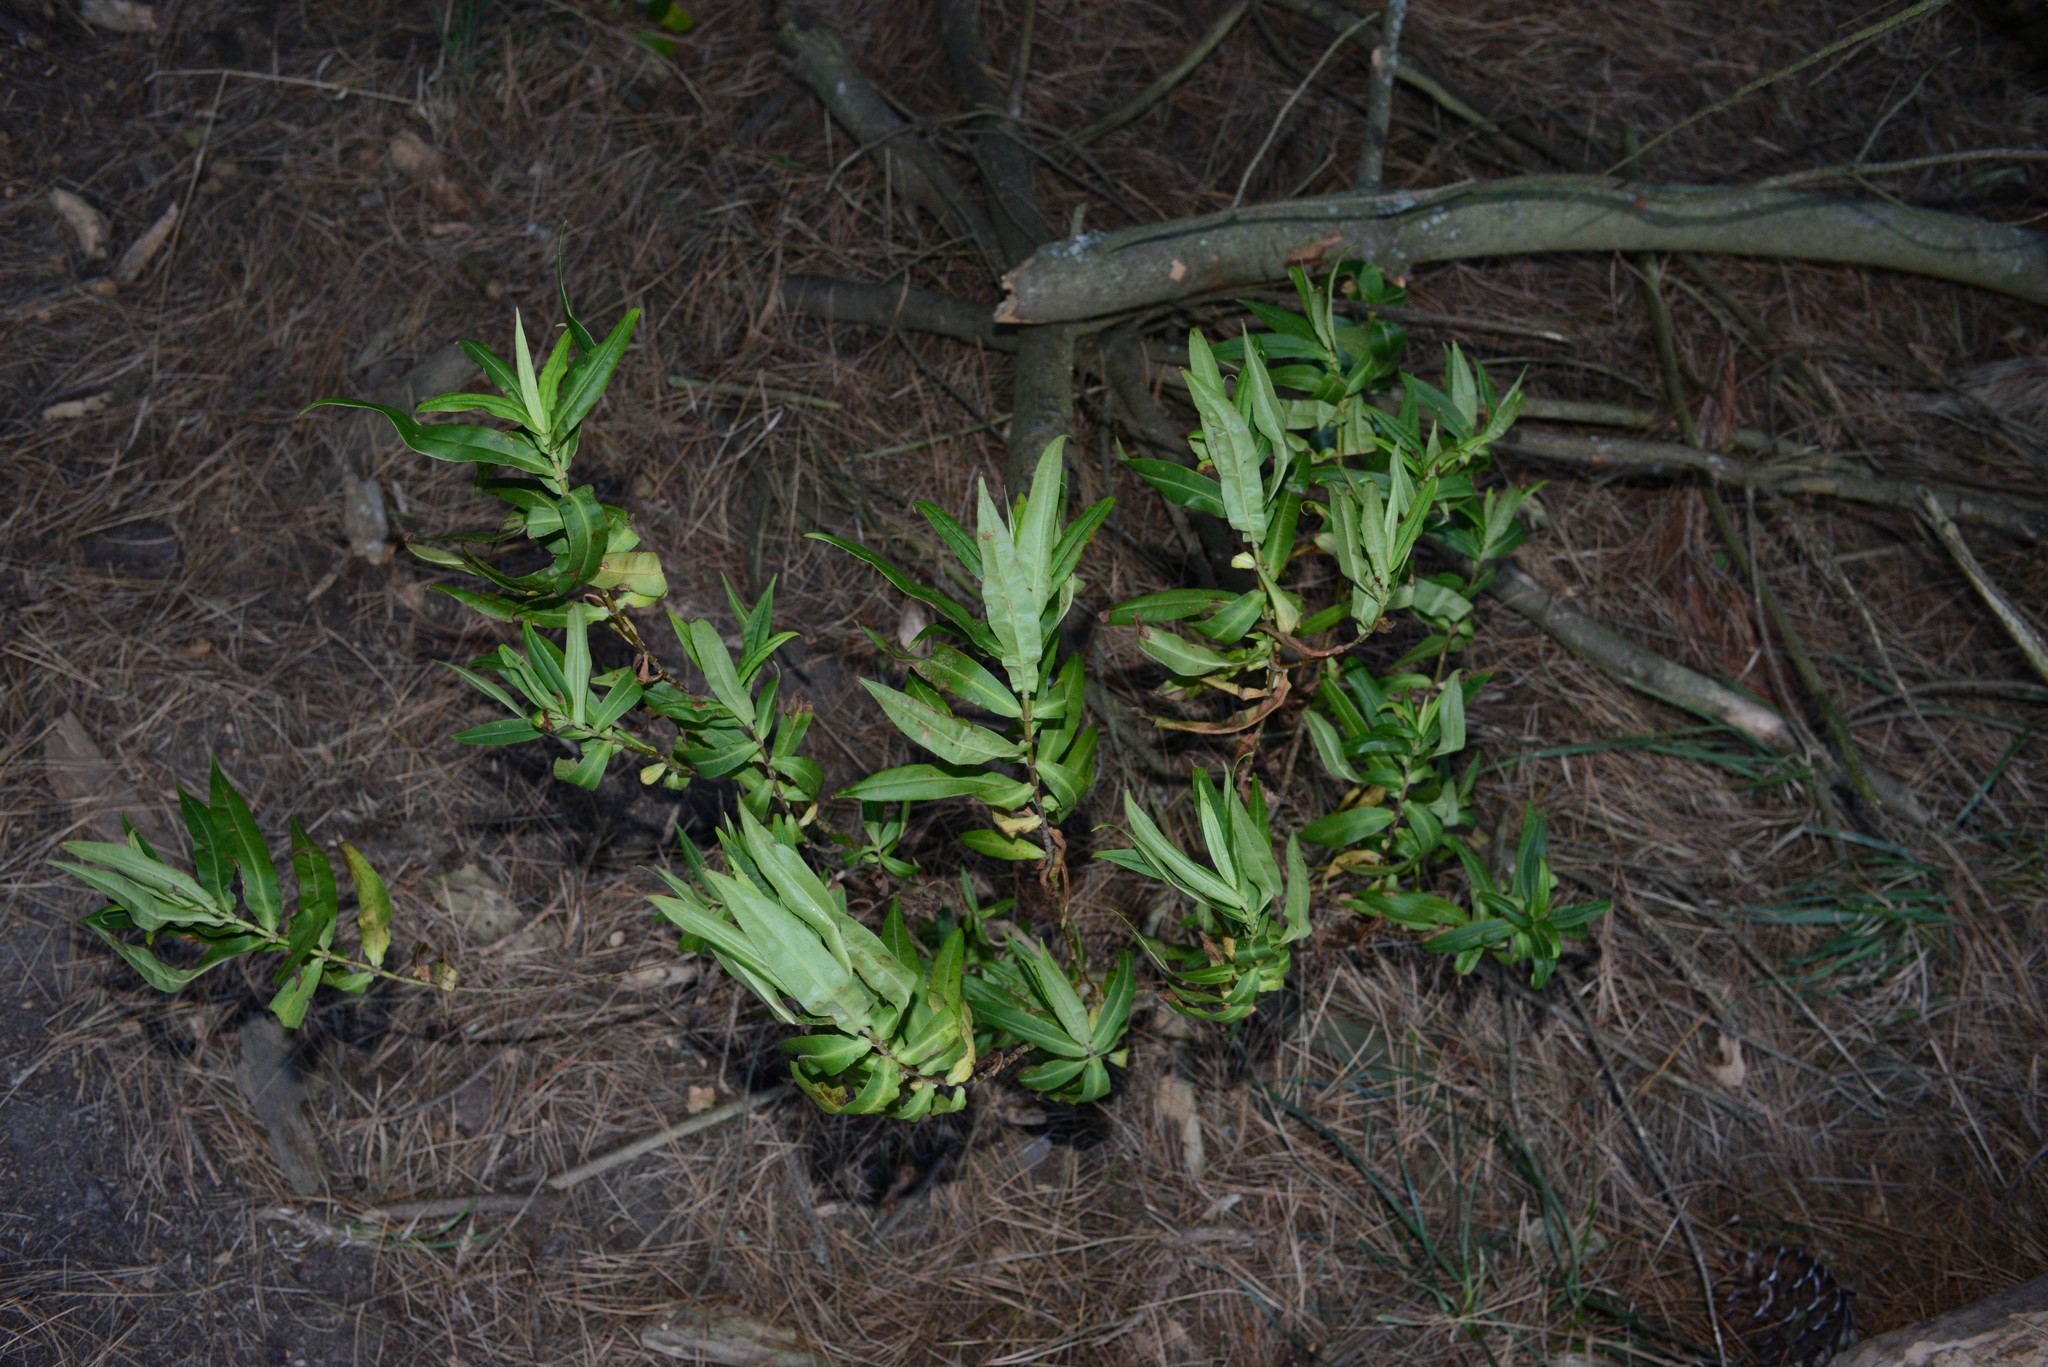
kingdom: Plantae
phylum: Tracheophyta
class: Magnoliopsida
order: Lamiales
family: Plantaginaceae
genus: Veronica
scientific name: Veronica salicifolia
